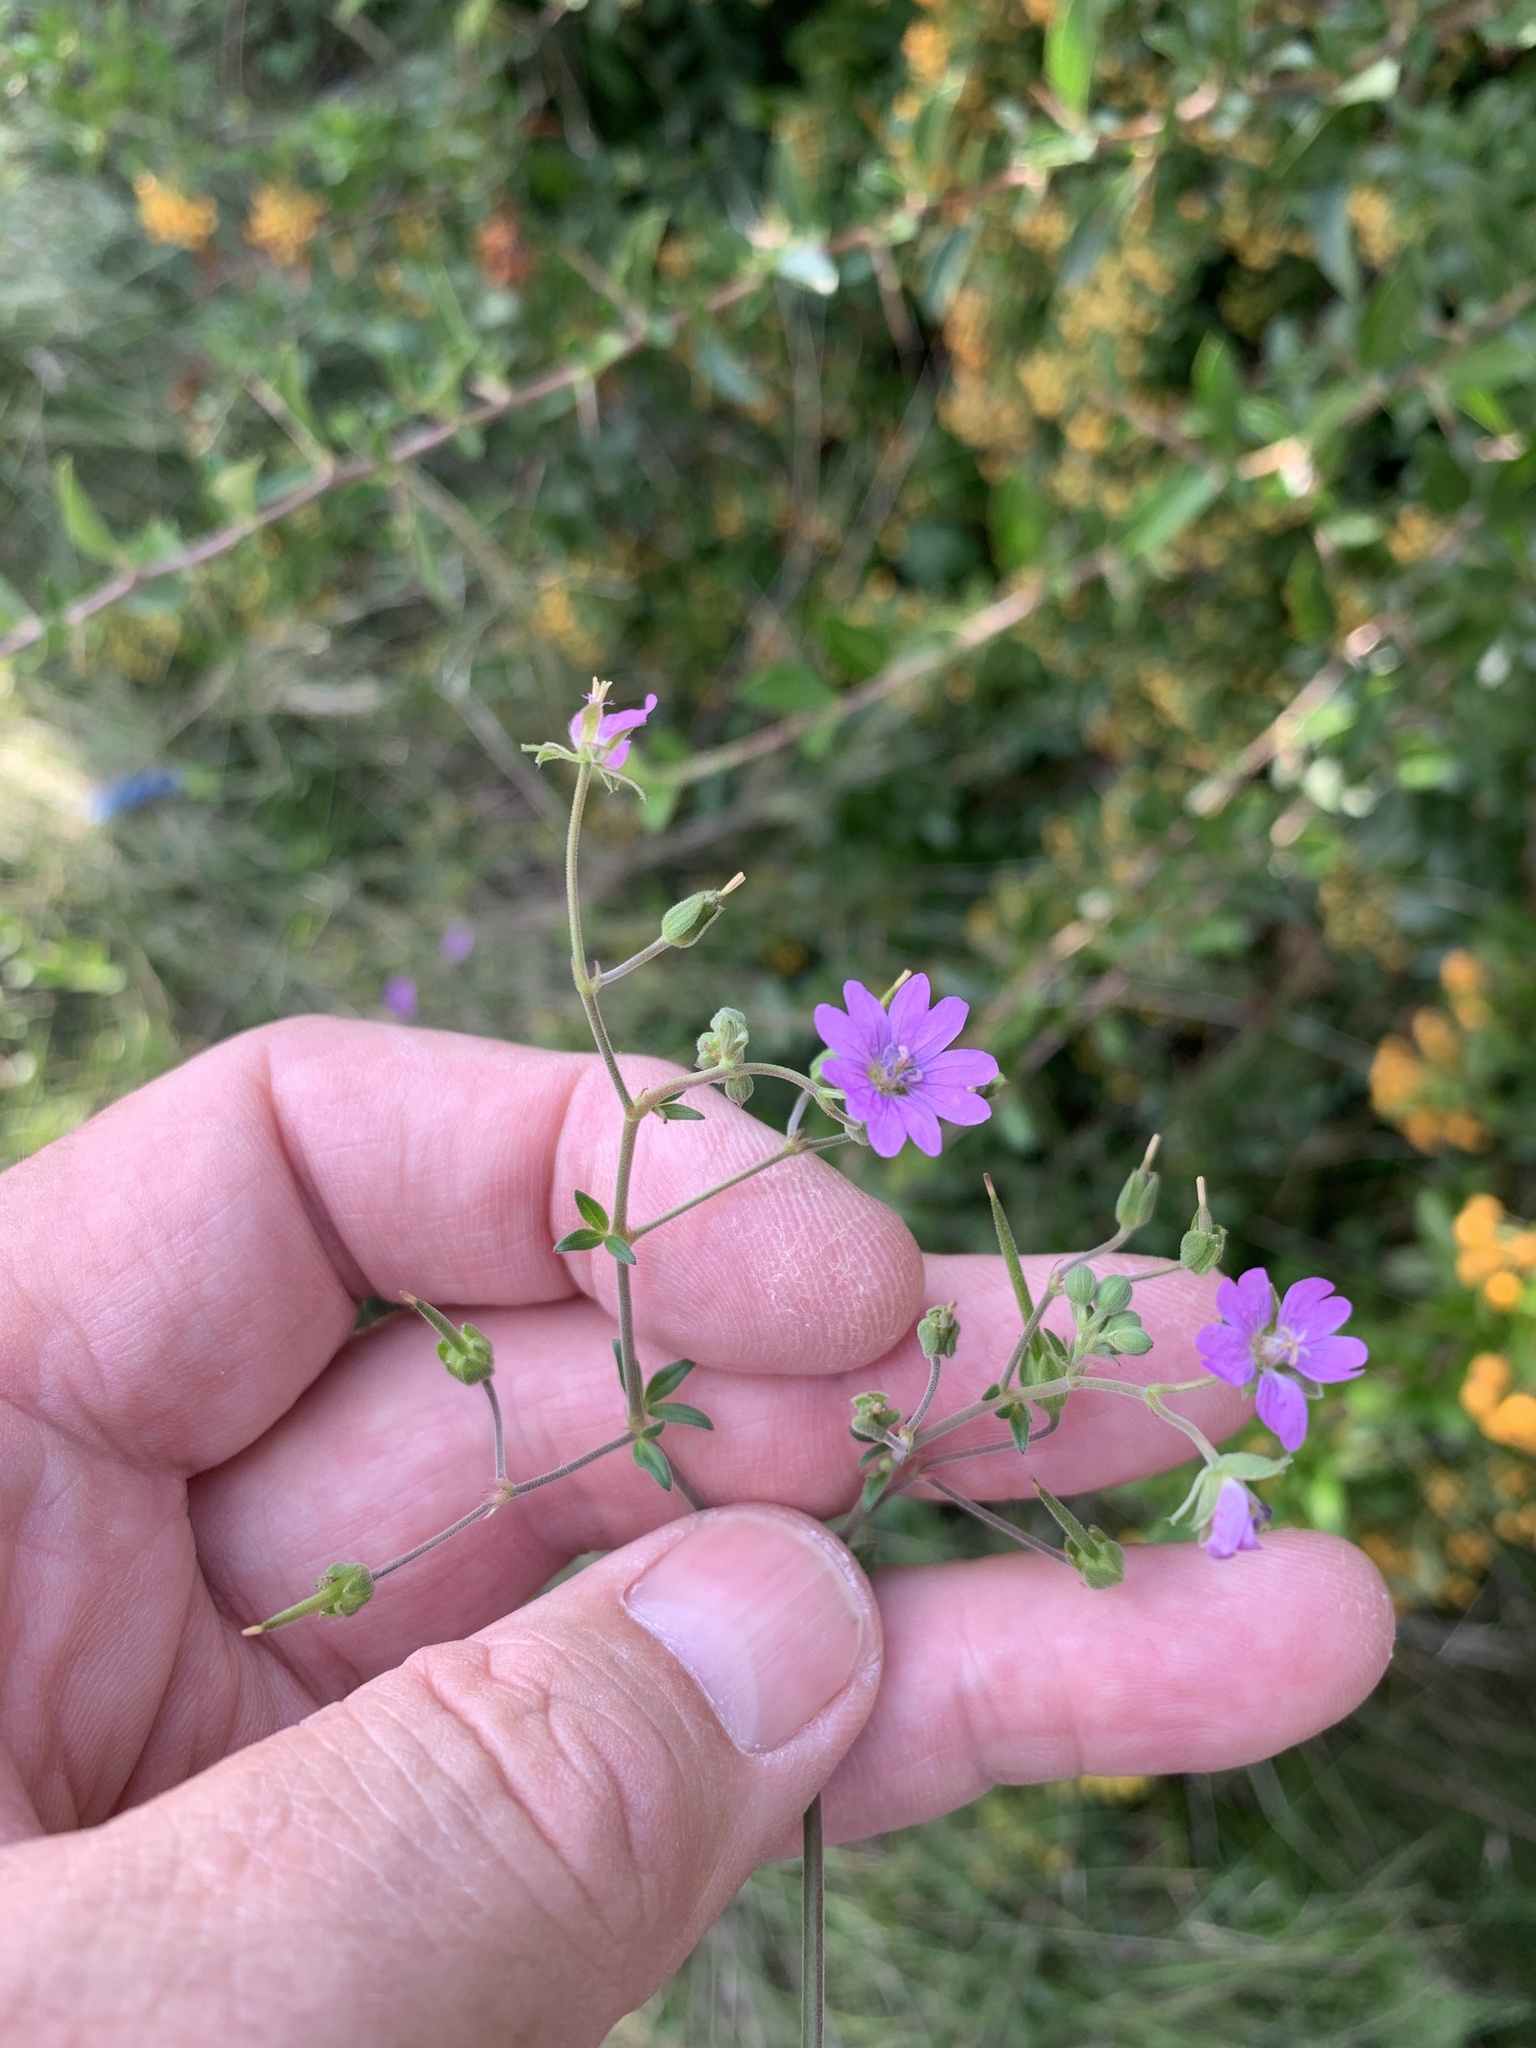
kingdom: Plantae
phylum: Tracheophyta
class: Magnoliopsida
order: Geraniales
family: Geraniaceae
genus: Geranium
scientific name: Geranium pyrenaicum
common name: Hedgerow crane's-bill
